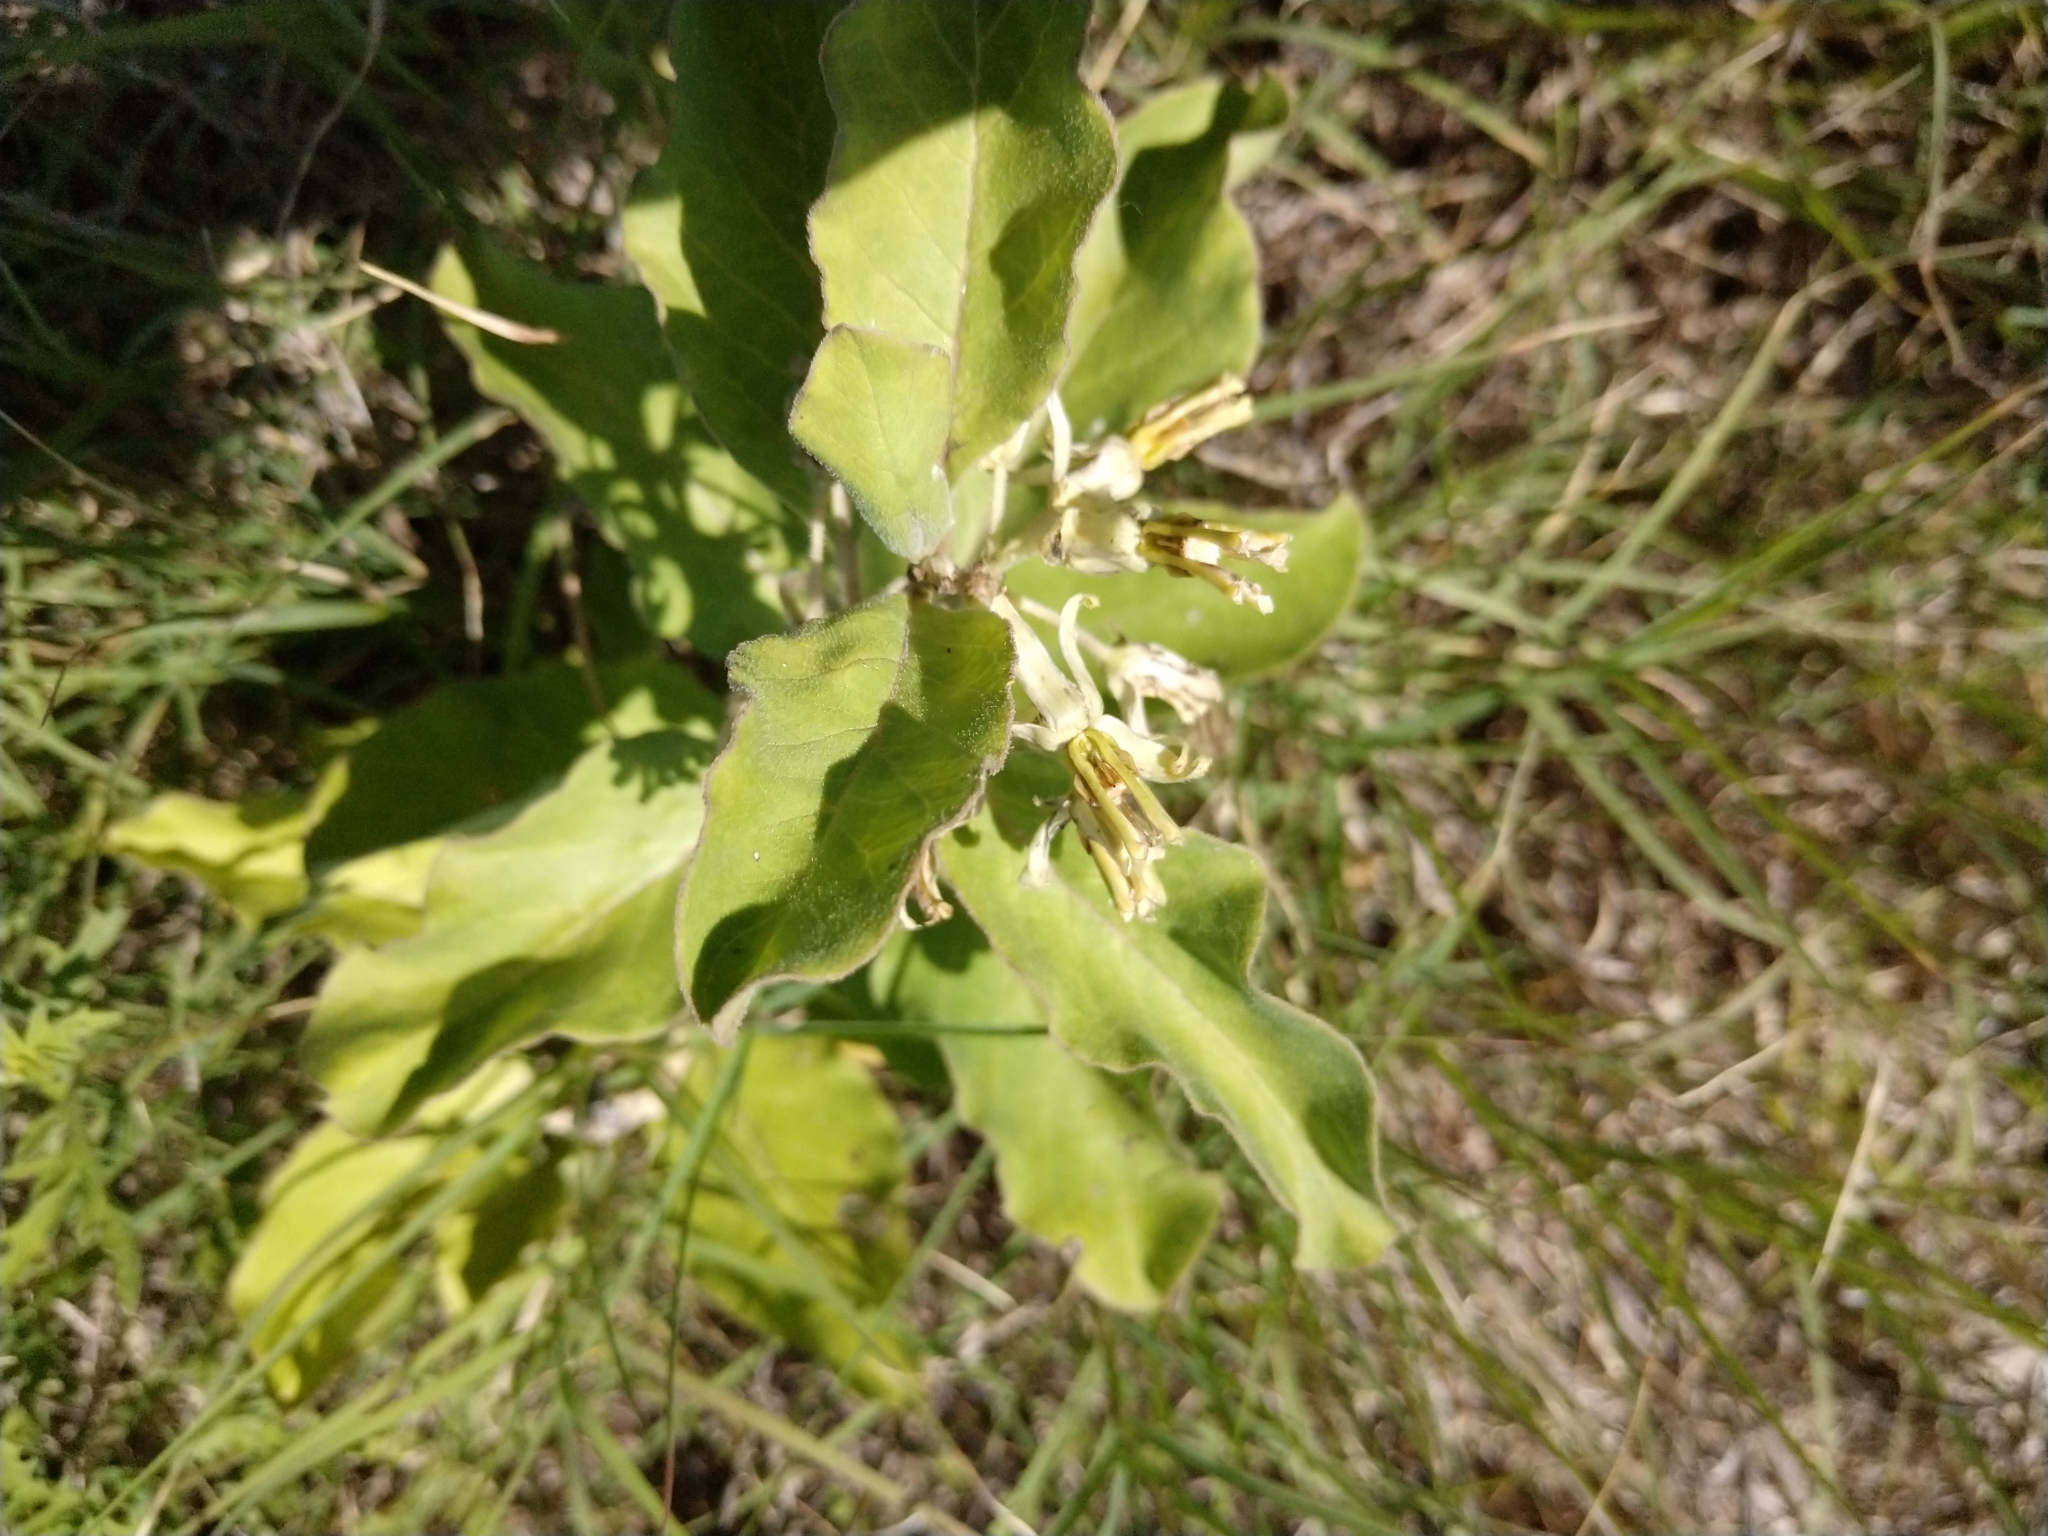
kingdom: Plantae
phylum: Tracheophyta
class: Magnoliopsida
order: Gentianales
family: Apocynaceae
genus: Asclepias
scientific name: Asclepias oenotheroides
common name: Zizotes milkweed
